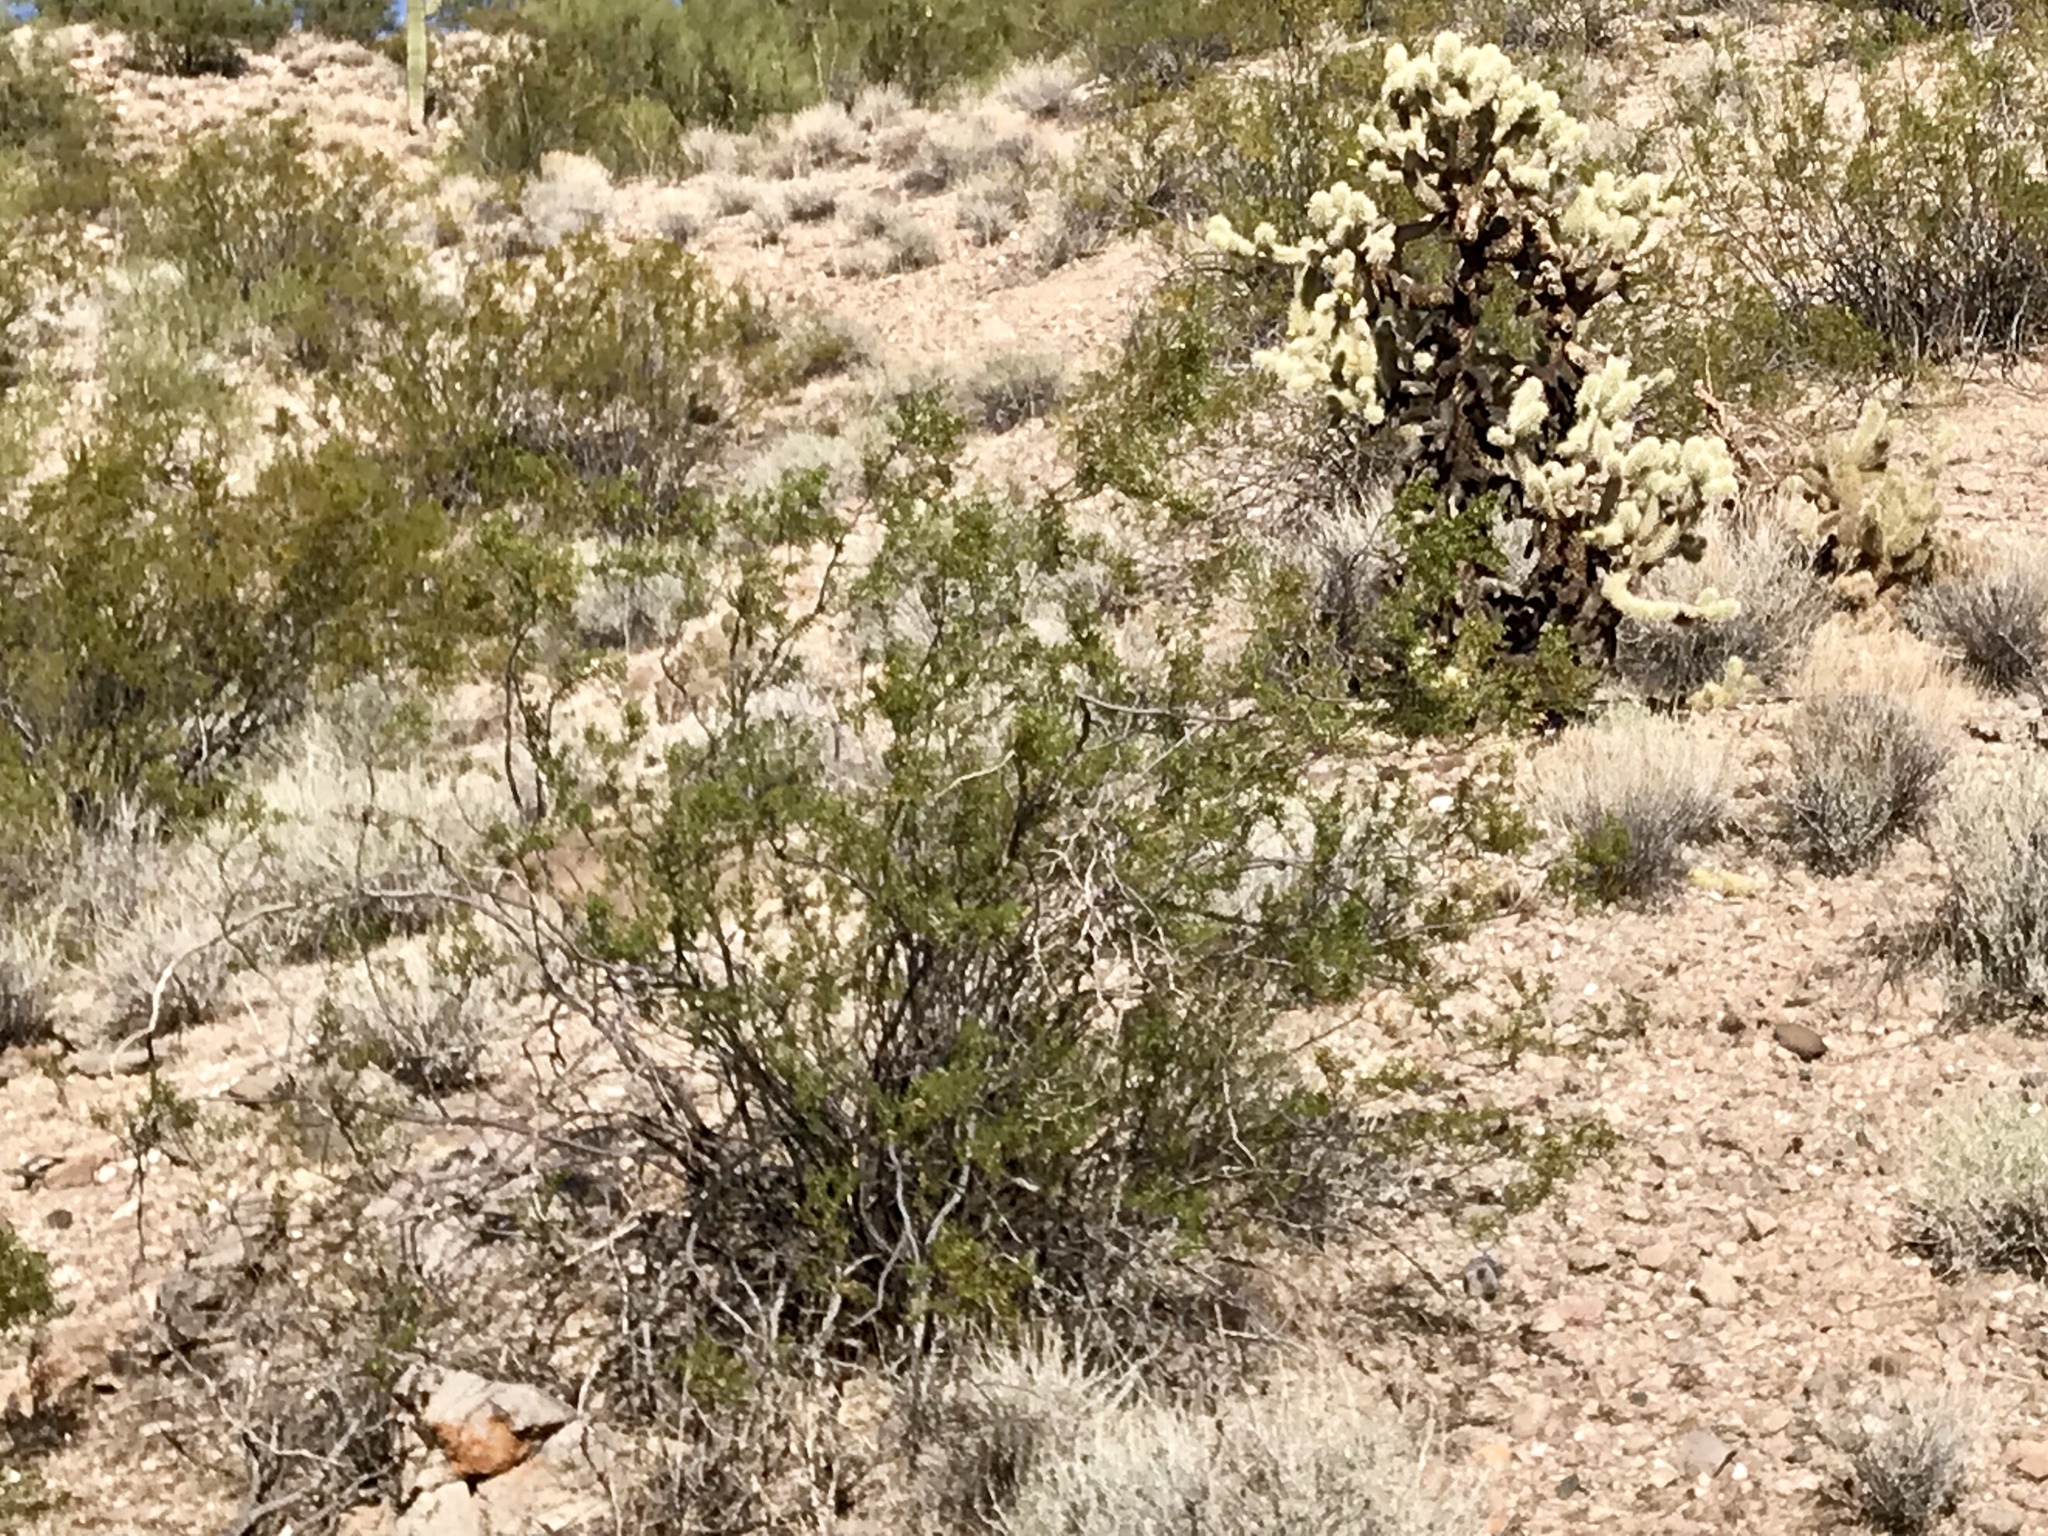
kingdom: Plantae
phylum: Tracheophyta
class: Magnoliopsida
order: Zygophyllales
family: Zygophyllaceae
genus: Larrea
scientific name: Larrea tridentata
